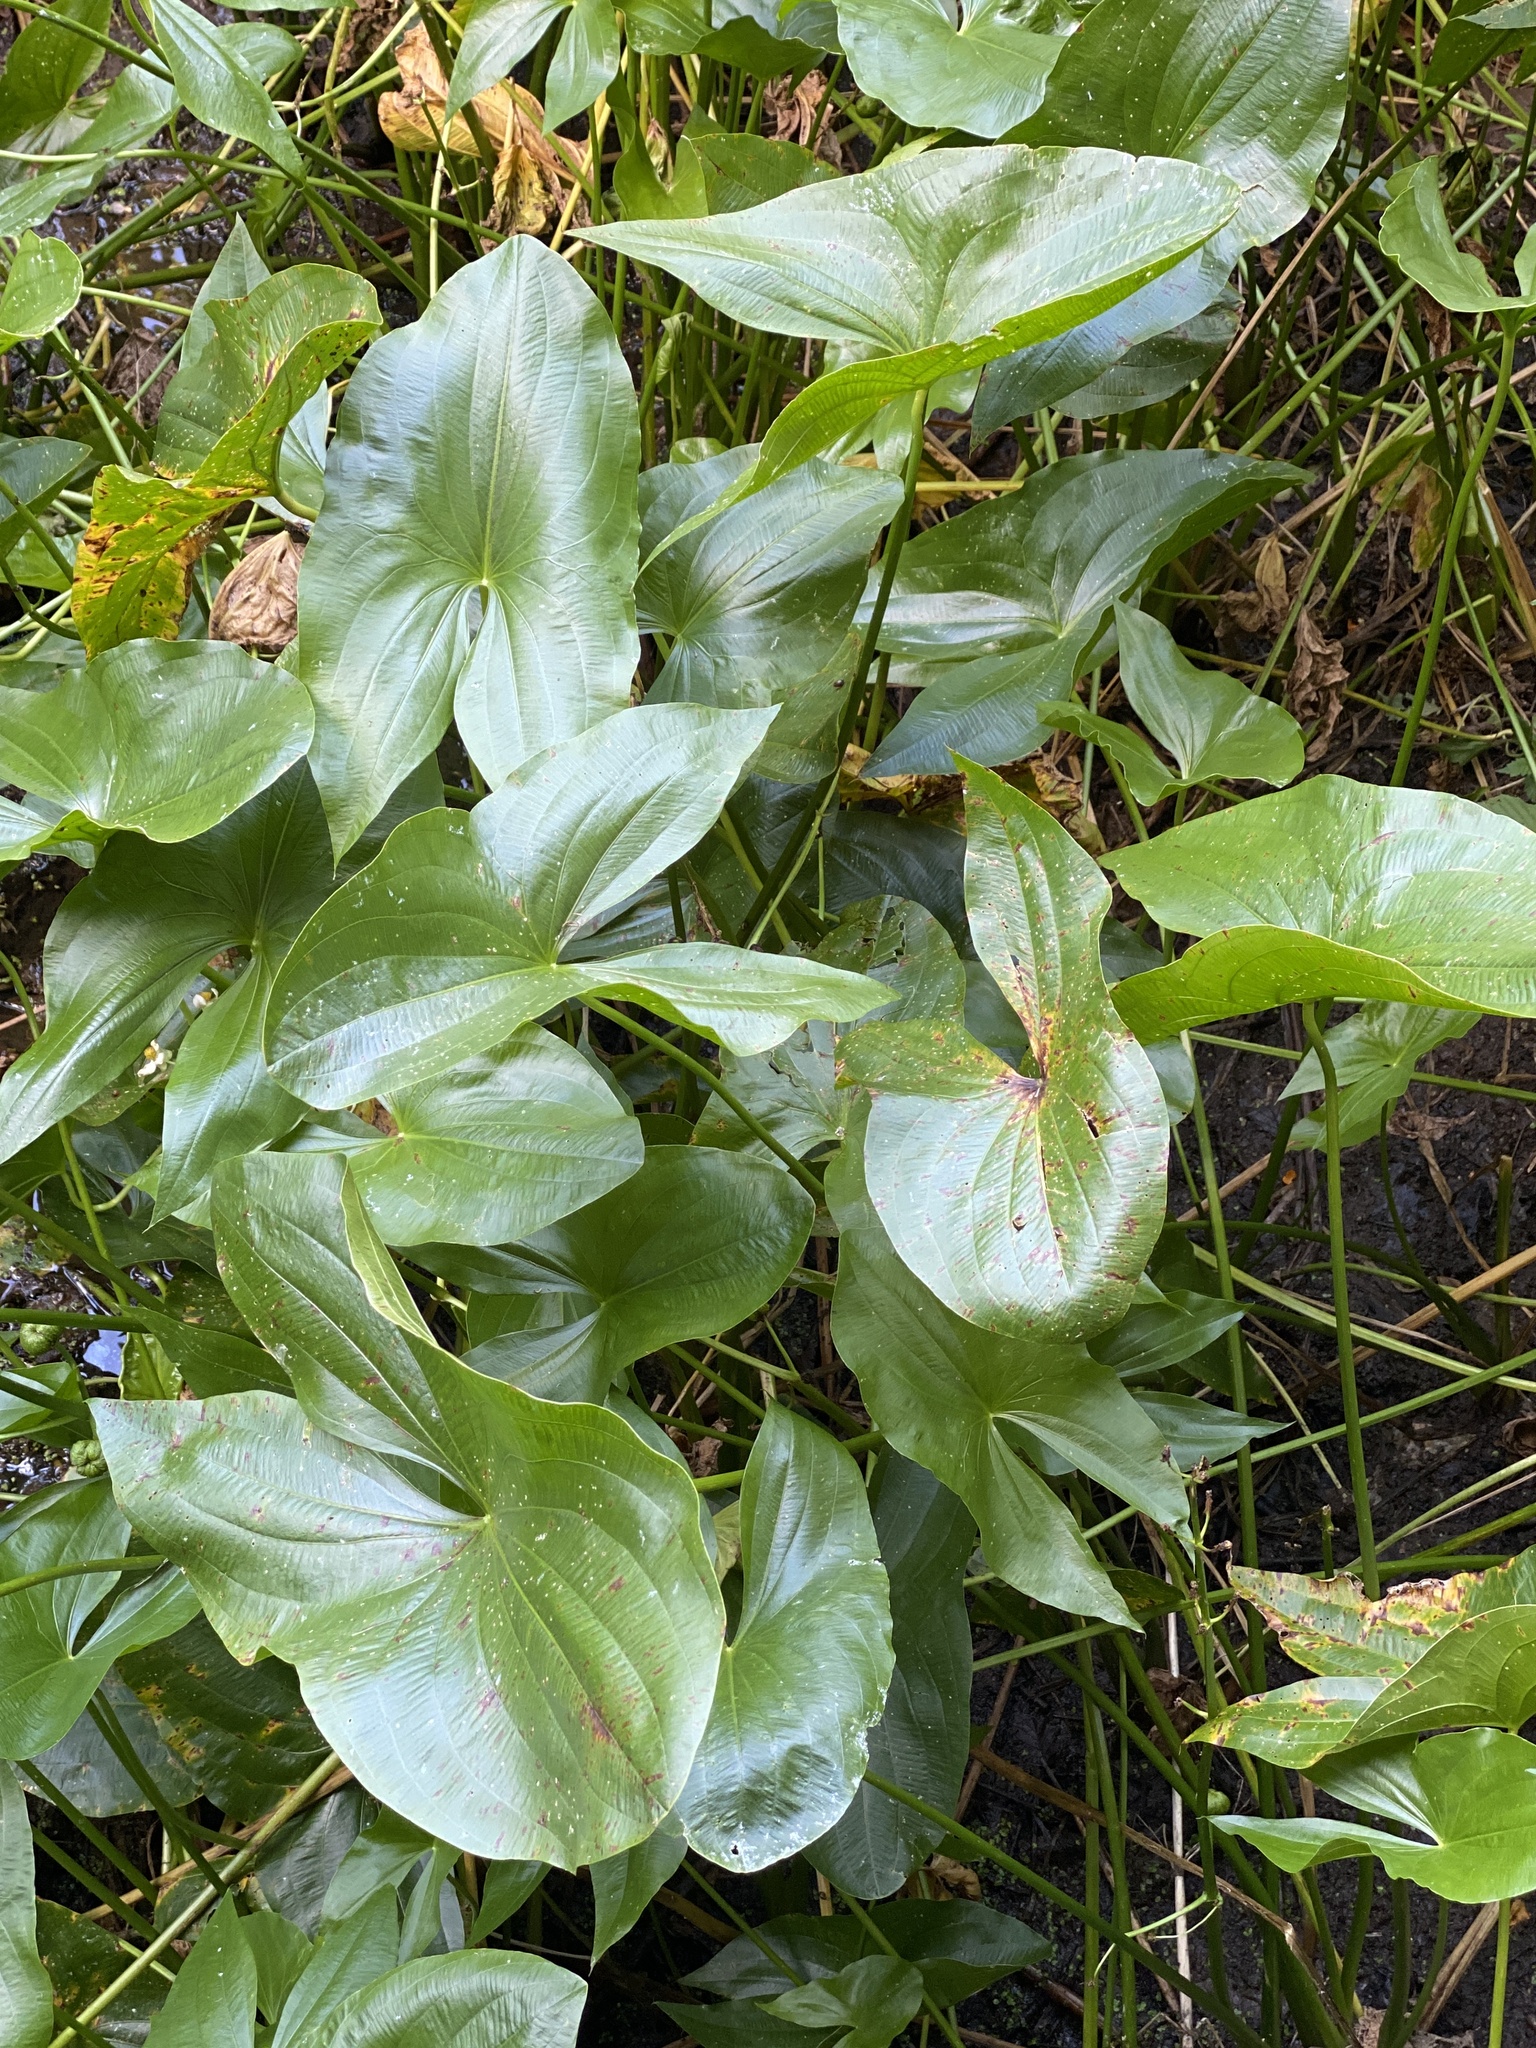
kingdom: Plantae
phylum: Tracheophyta
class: Liliopsida
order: Alismatales
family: Alismataceae
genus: Sagittaria
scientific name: Sagittaria latifolia
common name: Duck-potato
